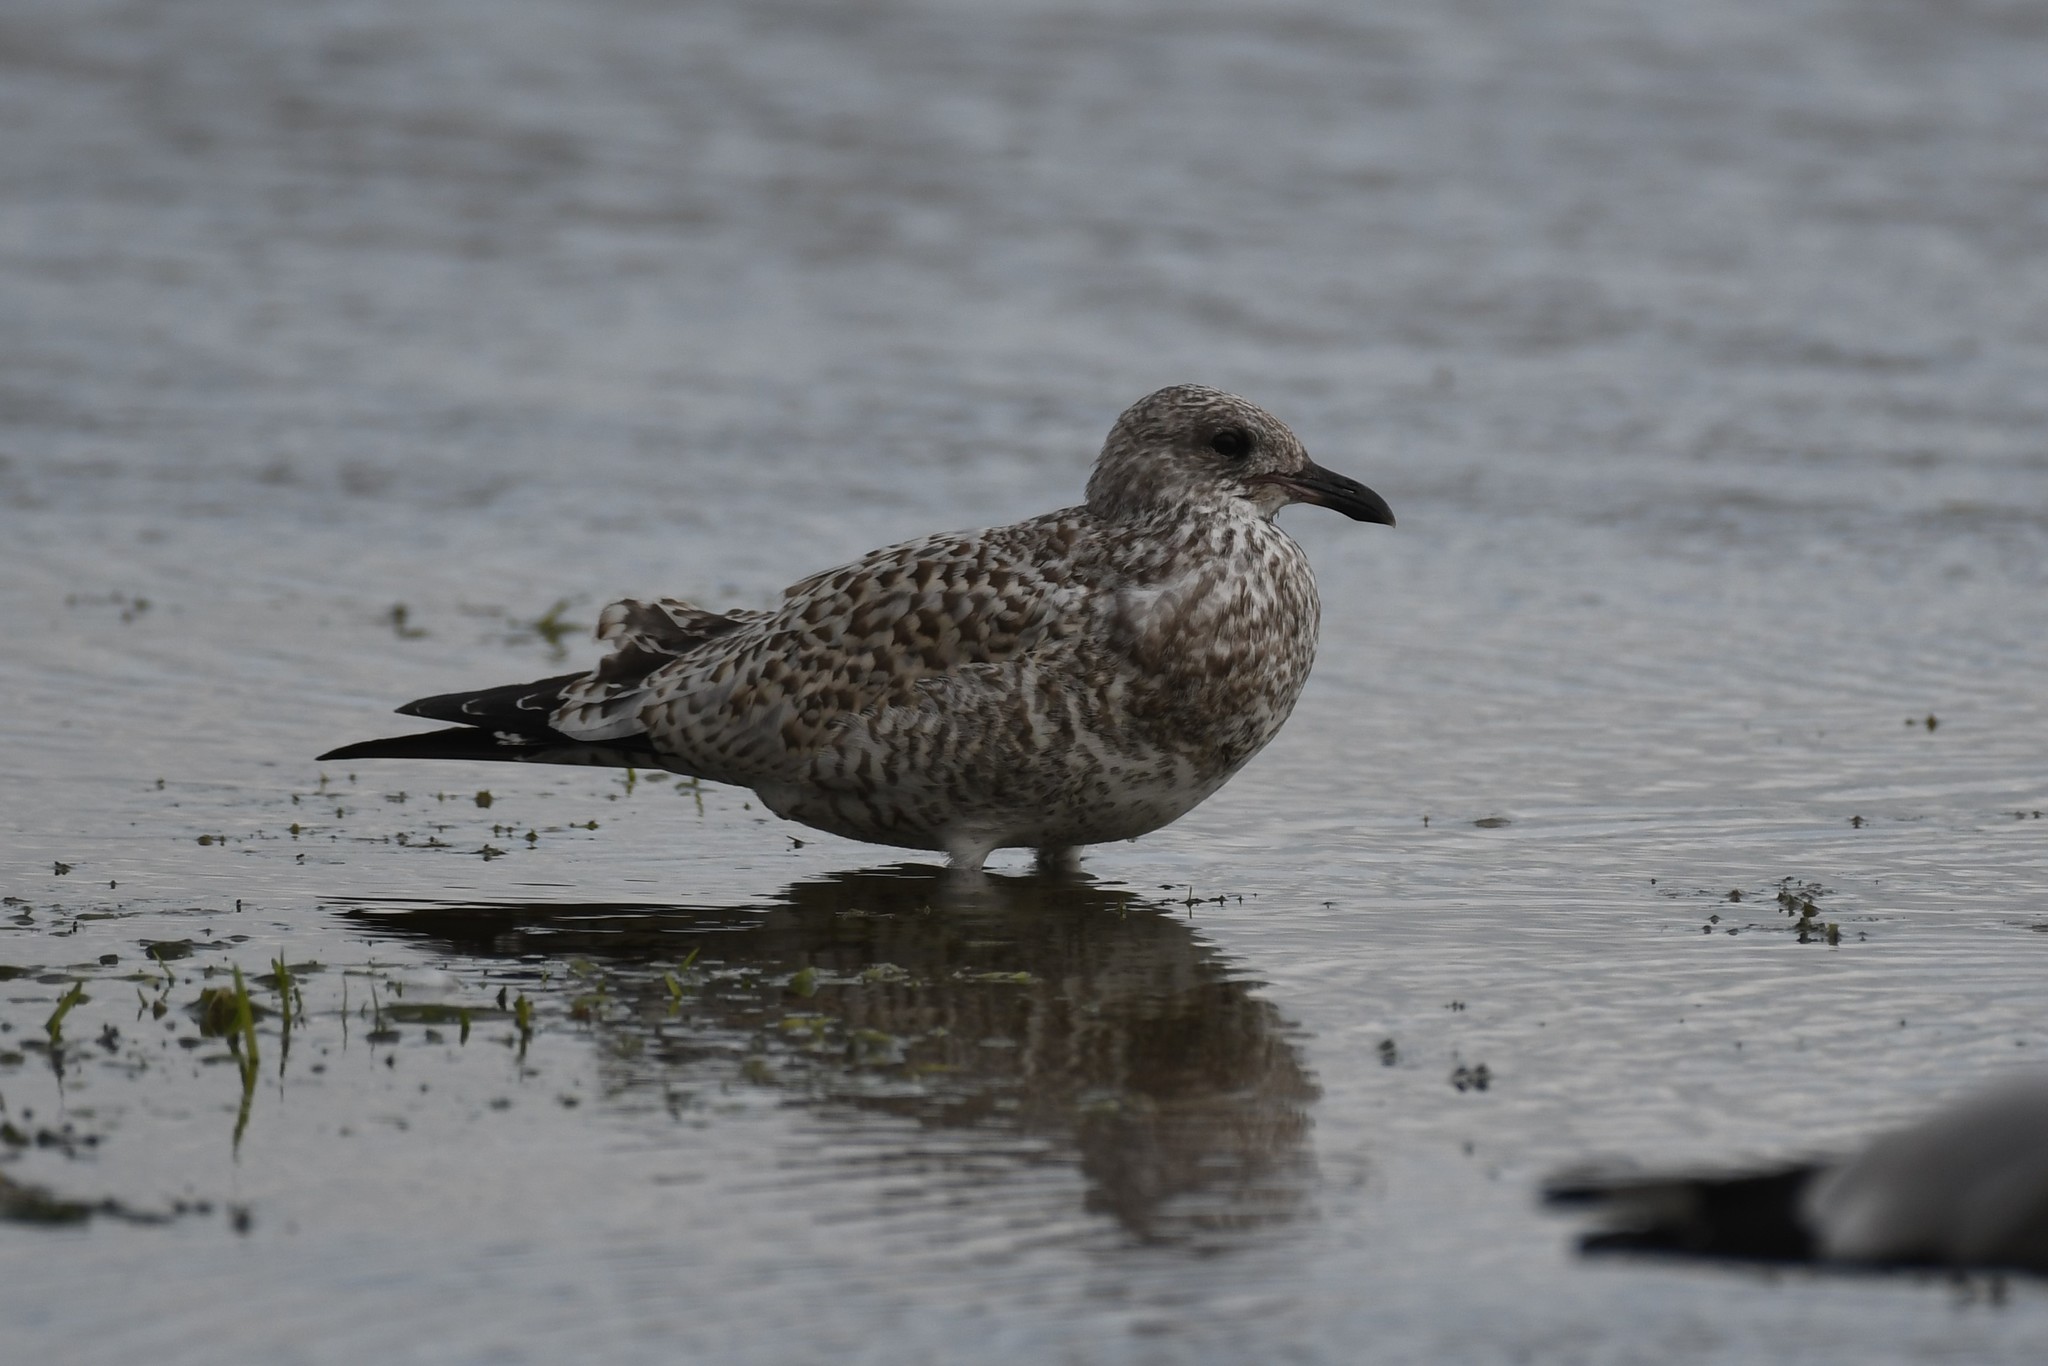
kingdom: Animalia
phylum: Chordata
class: Aves
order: Charadriiformes
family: Laridae
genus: Larus
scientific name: Larus delawarensis
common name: Ring-billed gull
